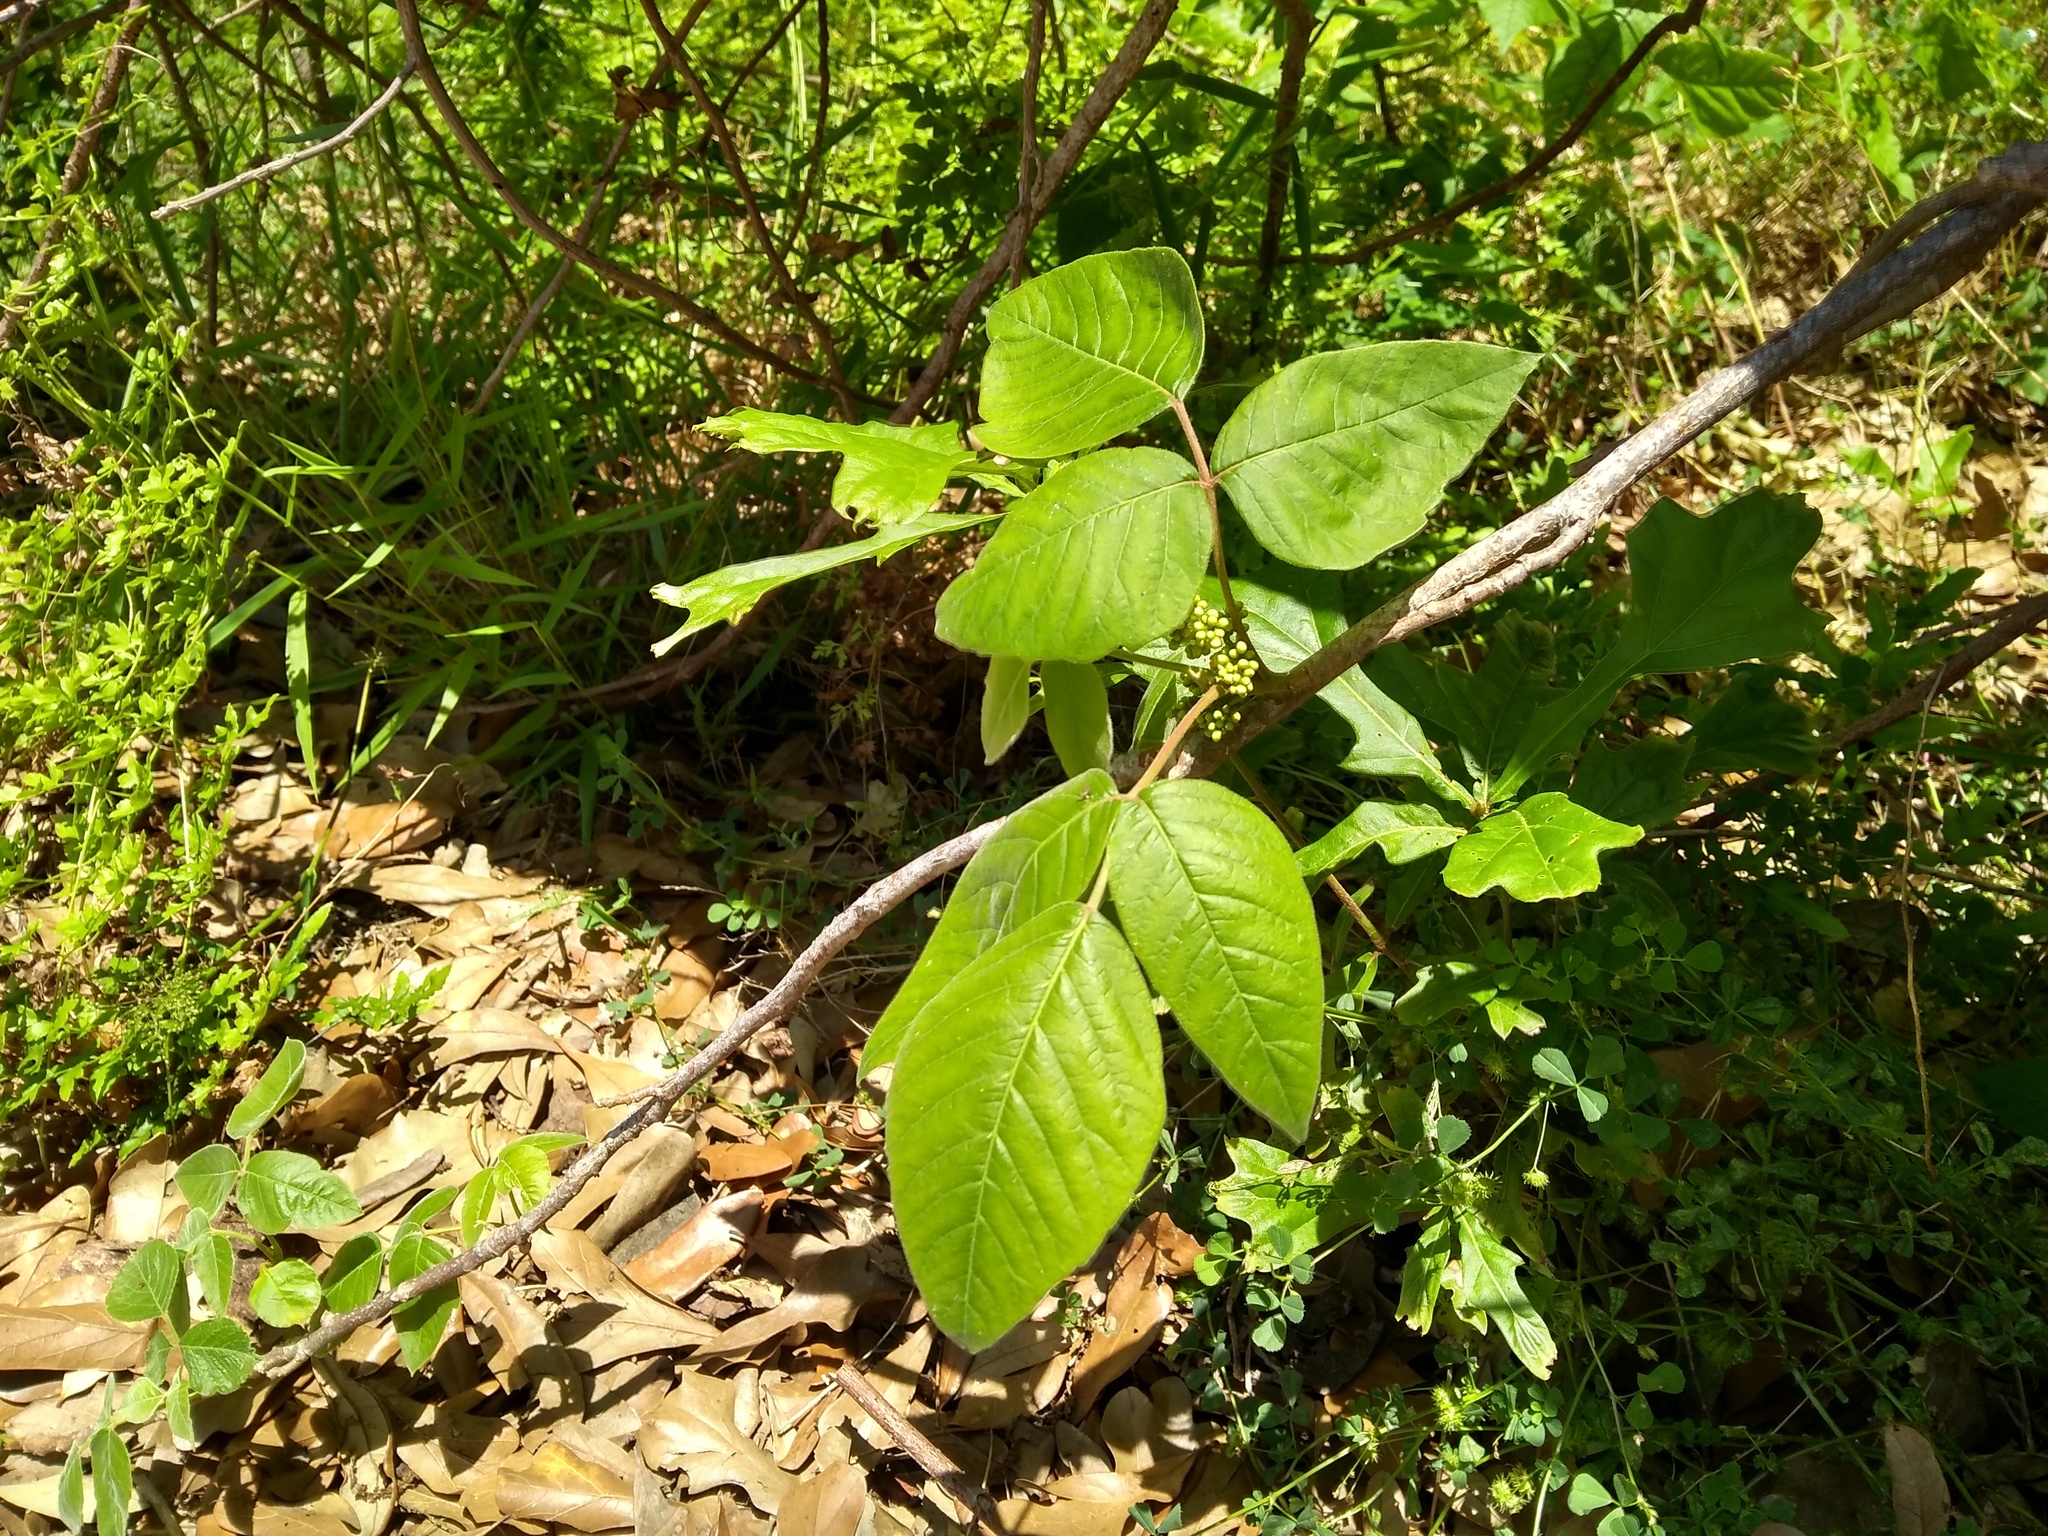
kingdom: Plantae
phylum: Tracheophyta
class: Magnoliopsida
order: Sapindales
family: Anacardiaceae
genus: Toxicodendron
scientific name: Toxicodendron radicans
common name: Poison ivy
